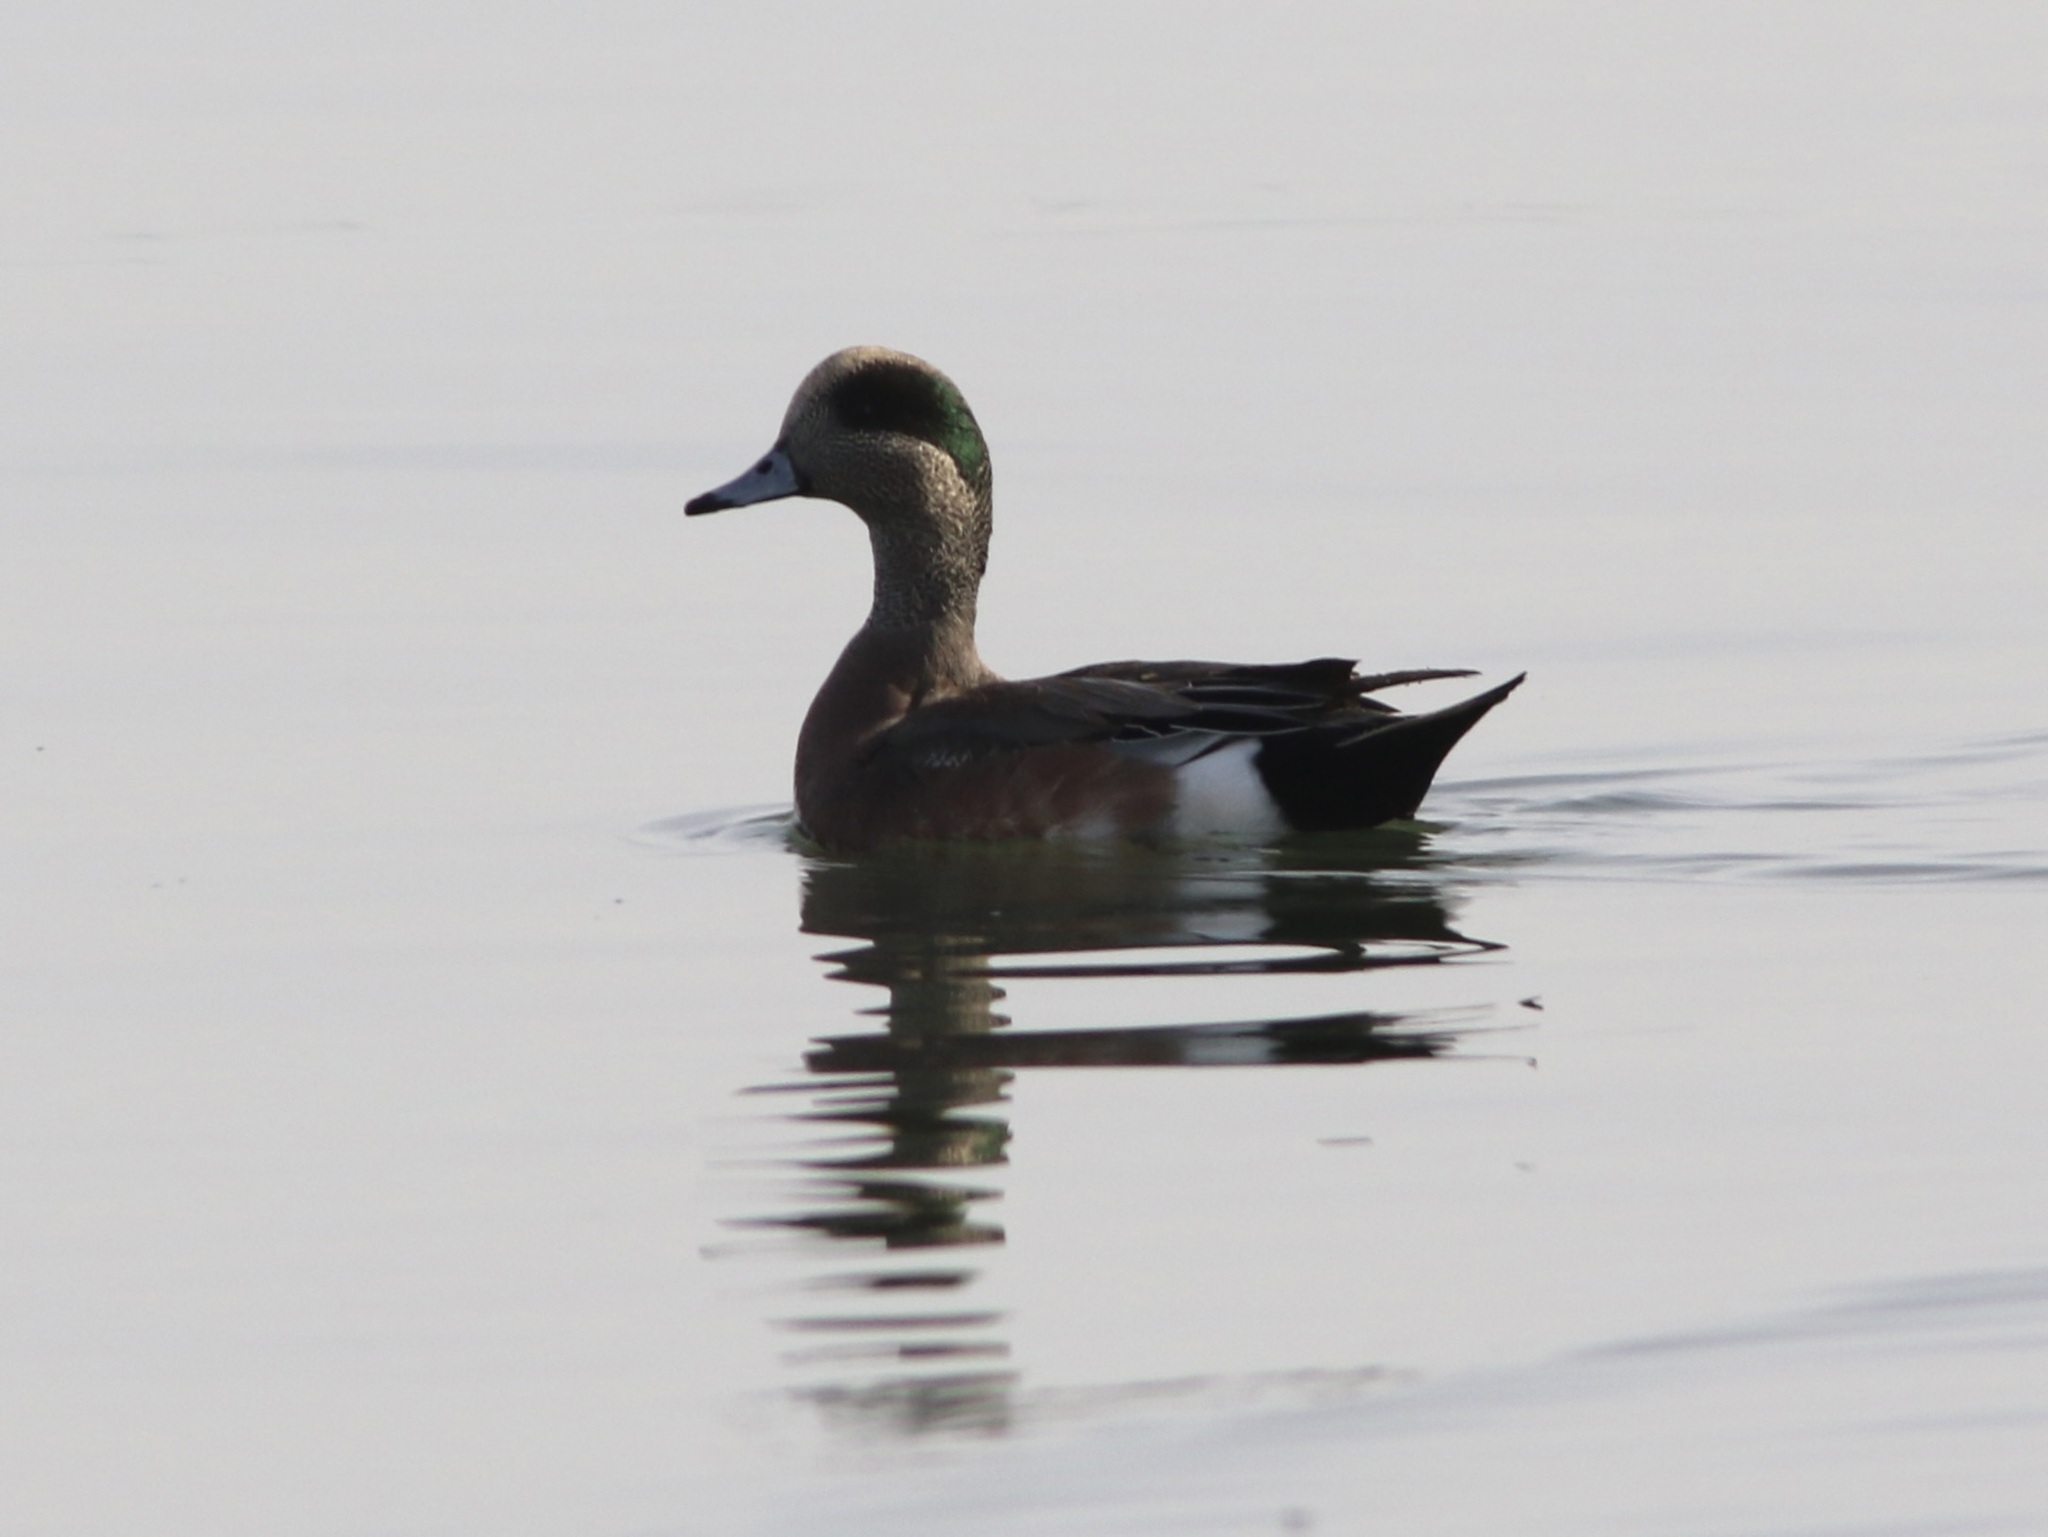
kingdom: Animalia
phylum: Chordata
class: Aves
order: Anseriformes
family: Anatidae
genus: Mareca
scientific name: Mareca americana
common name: American wigeon
